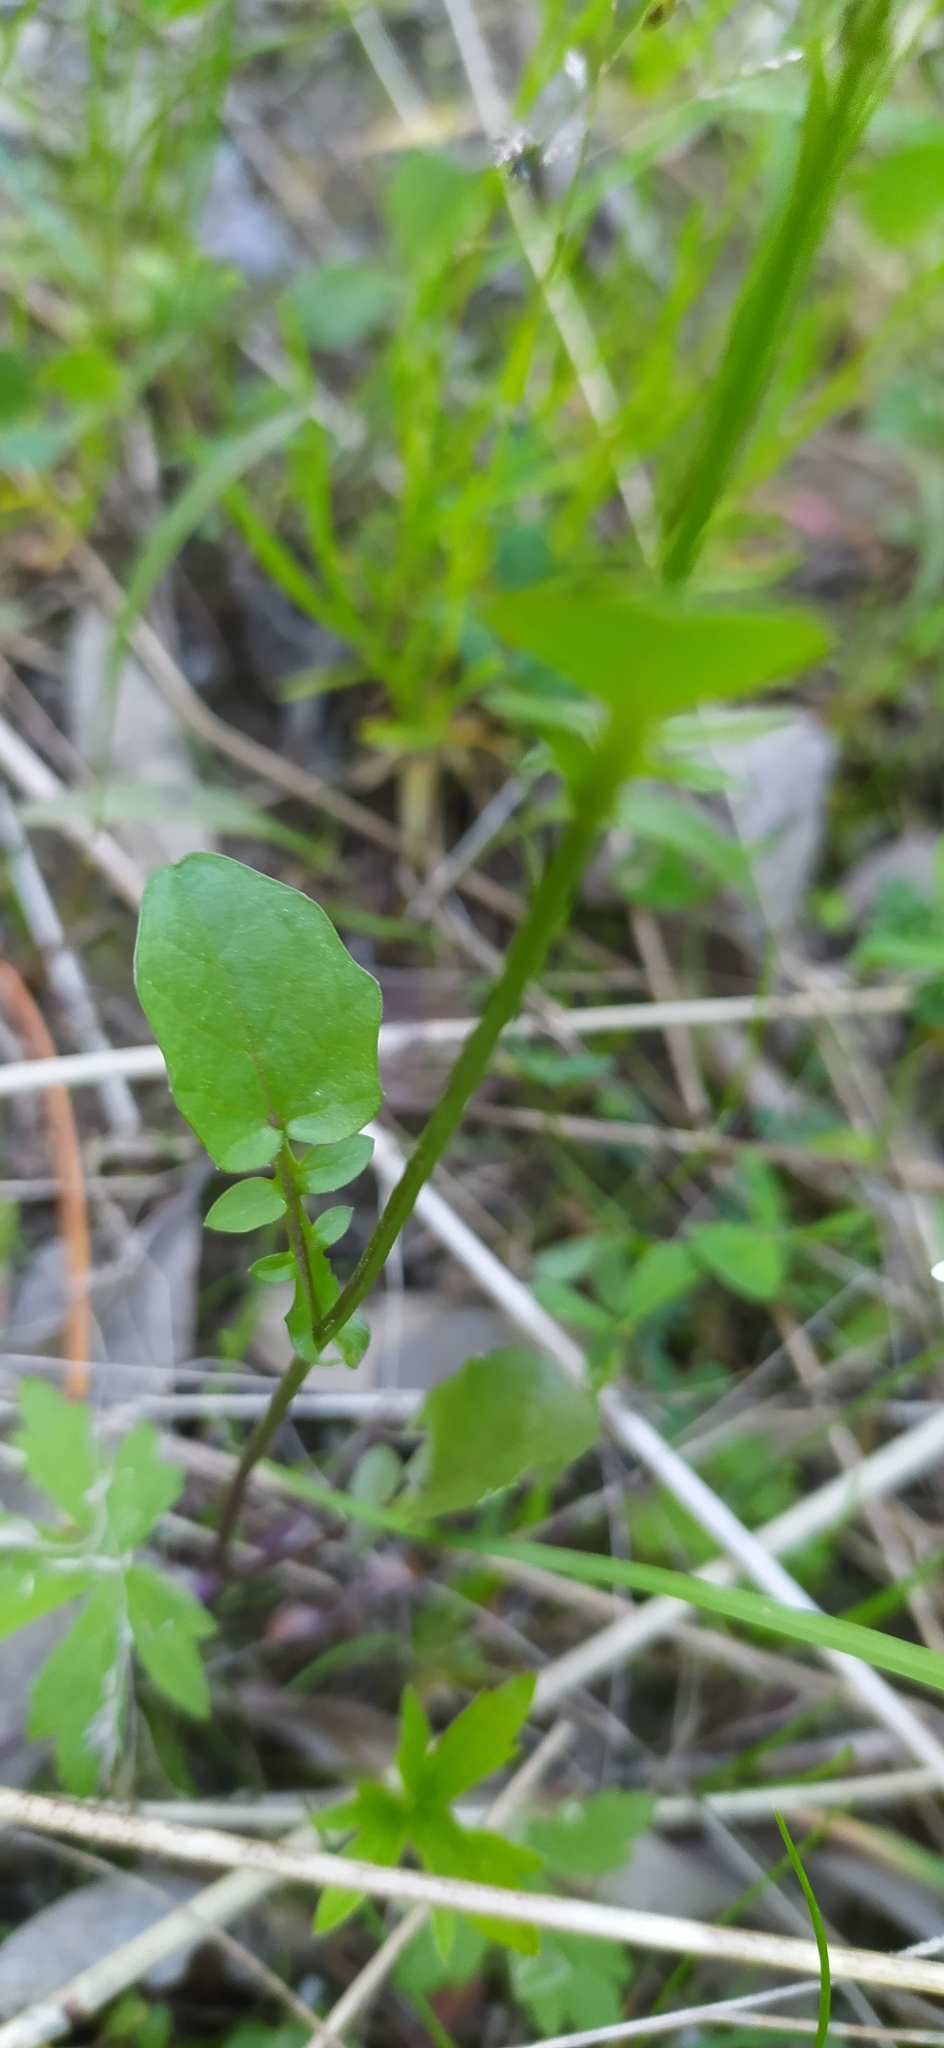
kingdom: Plantae
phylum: Tracheophyta
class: Magnoliopsida
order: Brassicales
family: Brassicaceae
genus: Barbarea
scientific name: Barbarea vulgaris
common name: Cressy-greens
